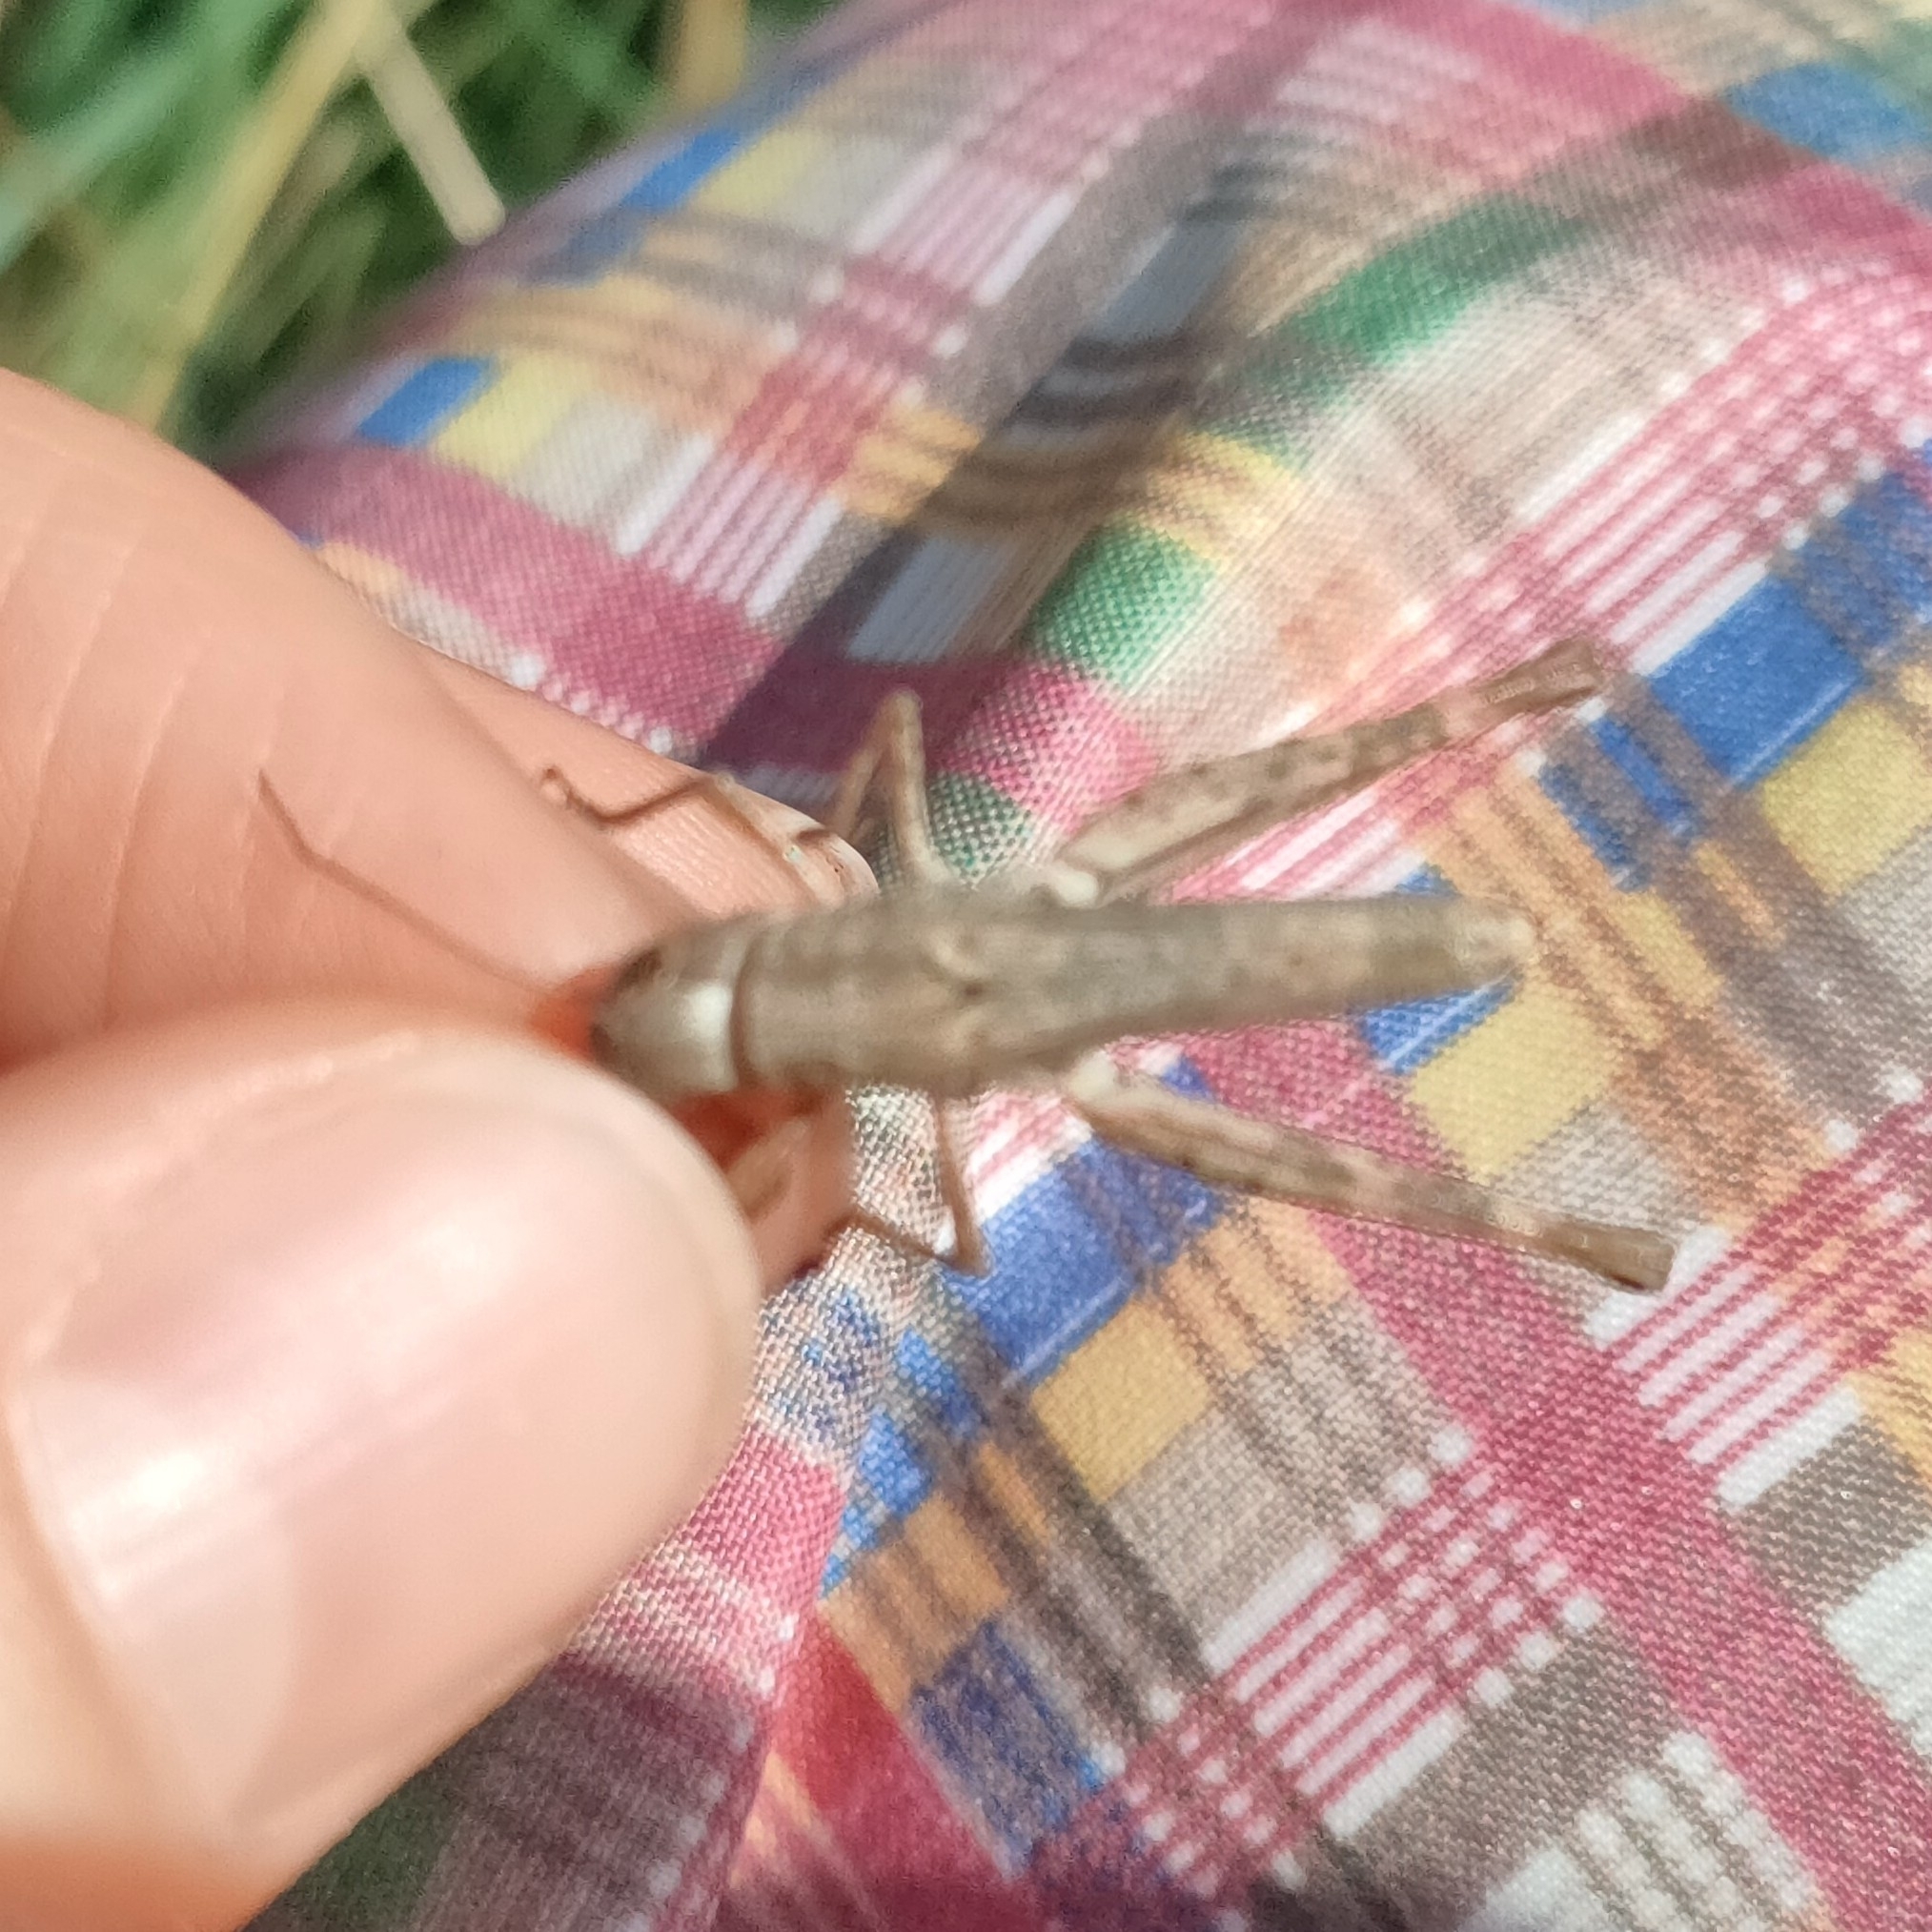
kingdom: Animalia
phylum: Arthropoda
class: Insecta
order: Orthoptera
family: Acrididae
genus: Chorthippus
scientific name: Chorthippus macrocerus
